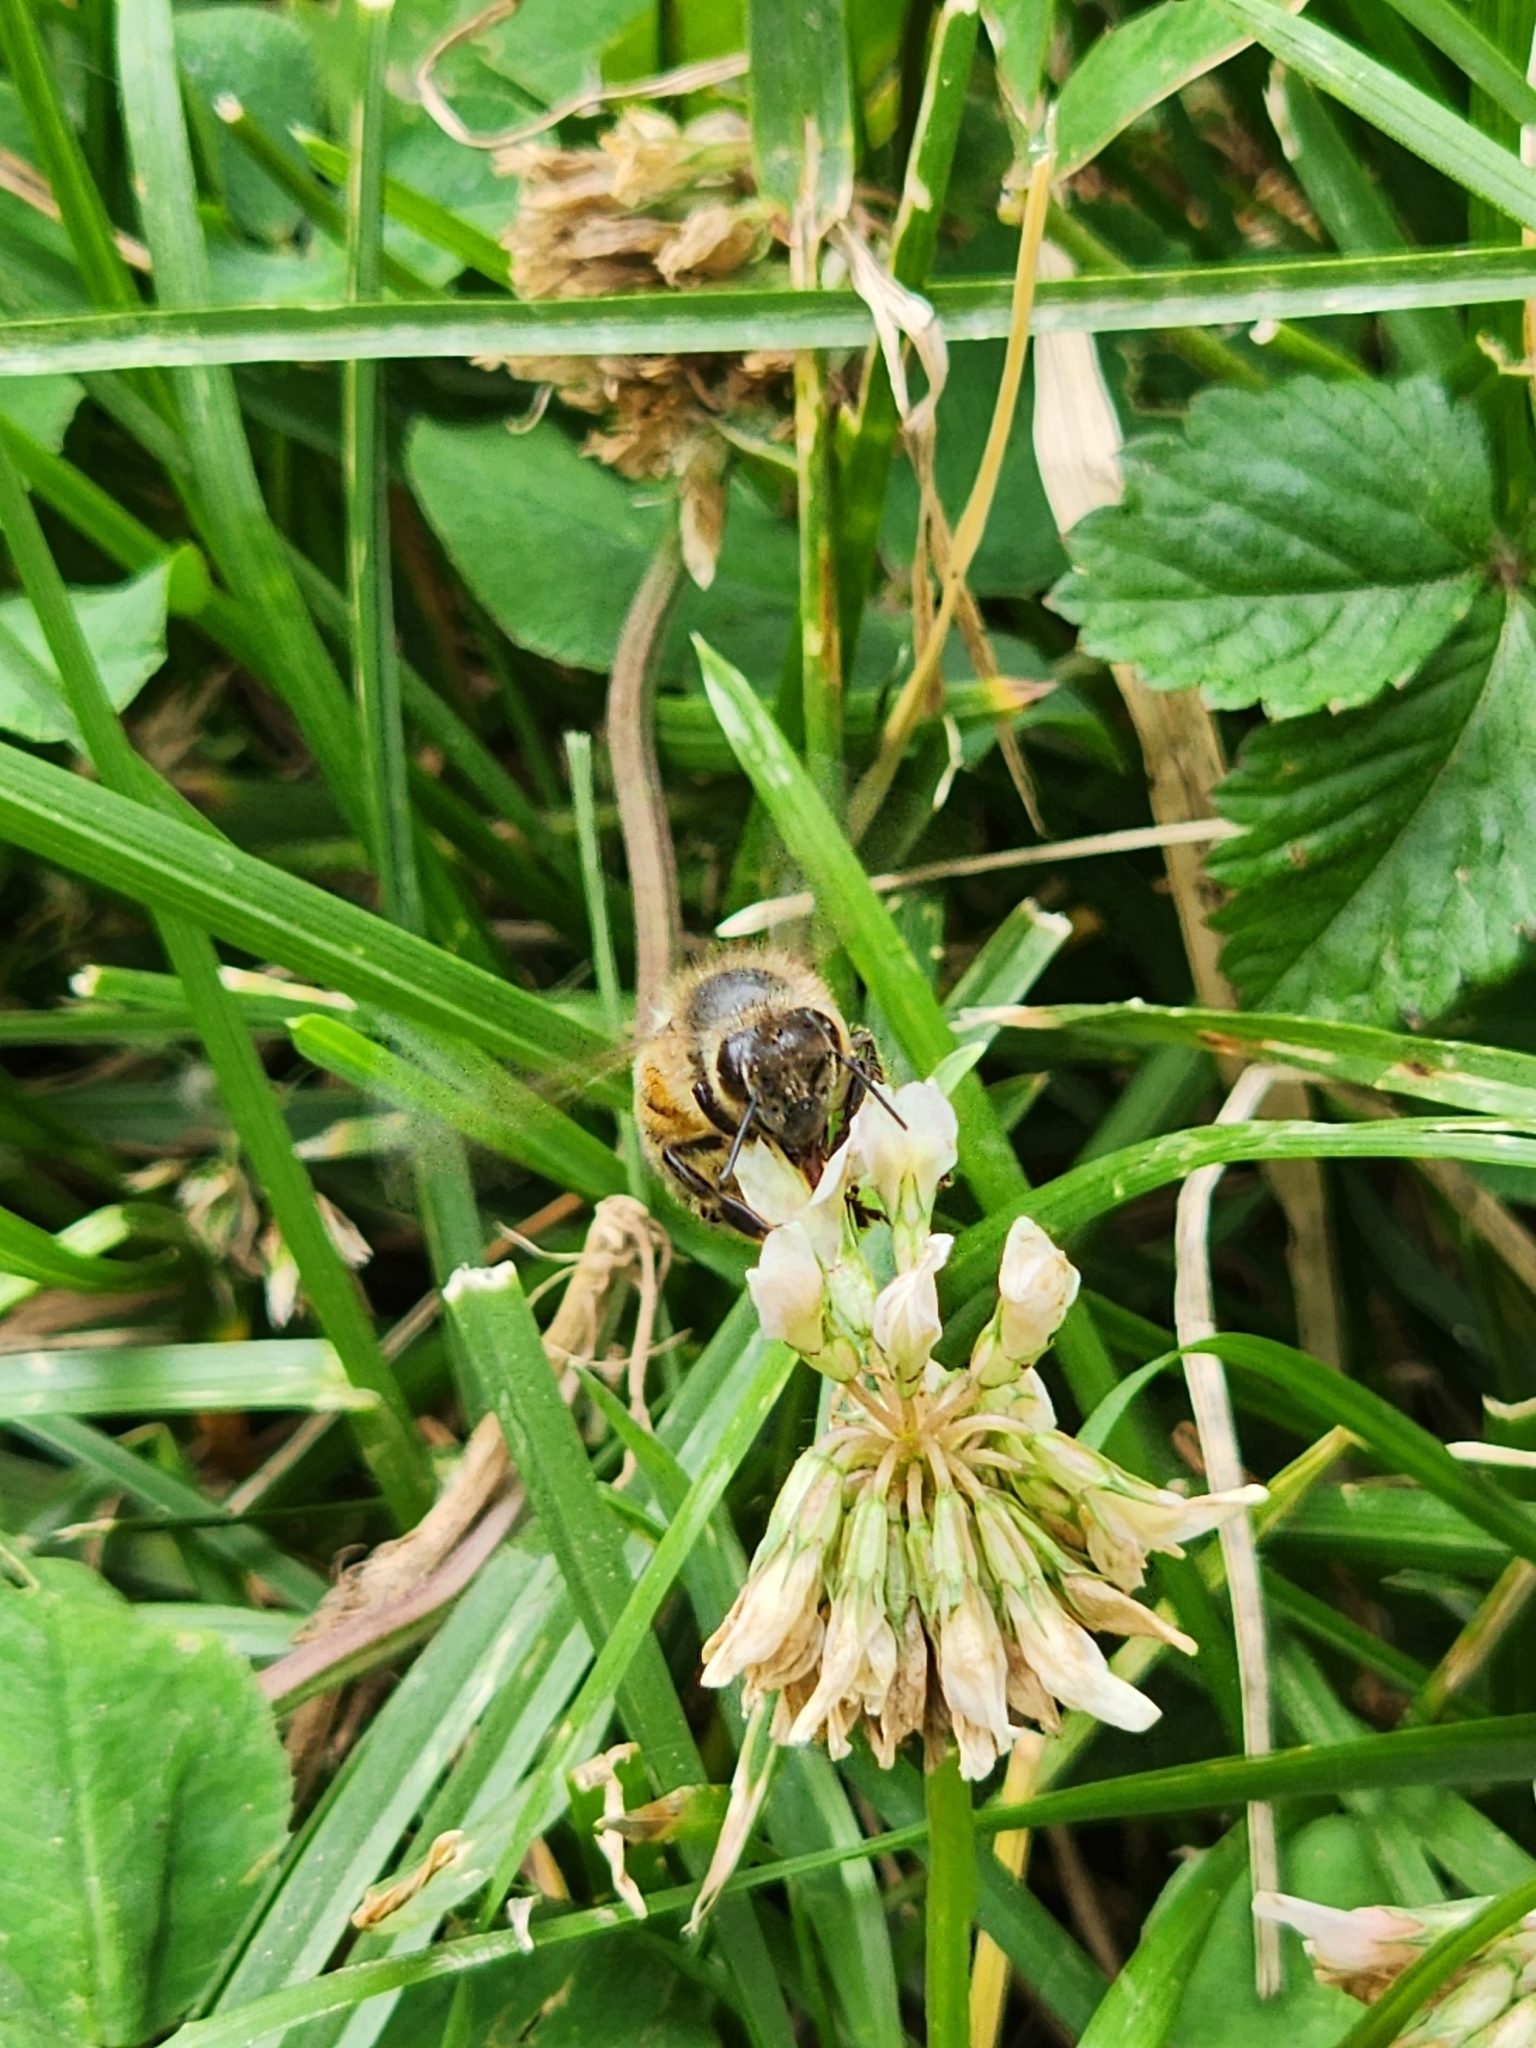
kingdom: Animalia
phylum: Arthropoda
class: Insecta
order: Hymenoptera
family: Apidae
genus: Apis
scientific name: Apis mellifera
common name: Honey bee
